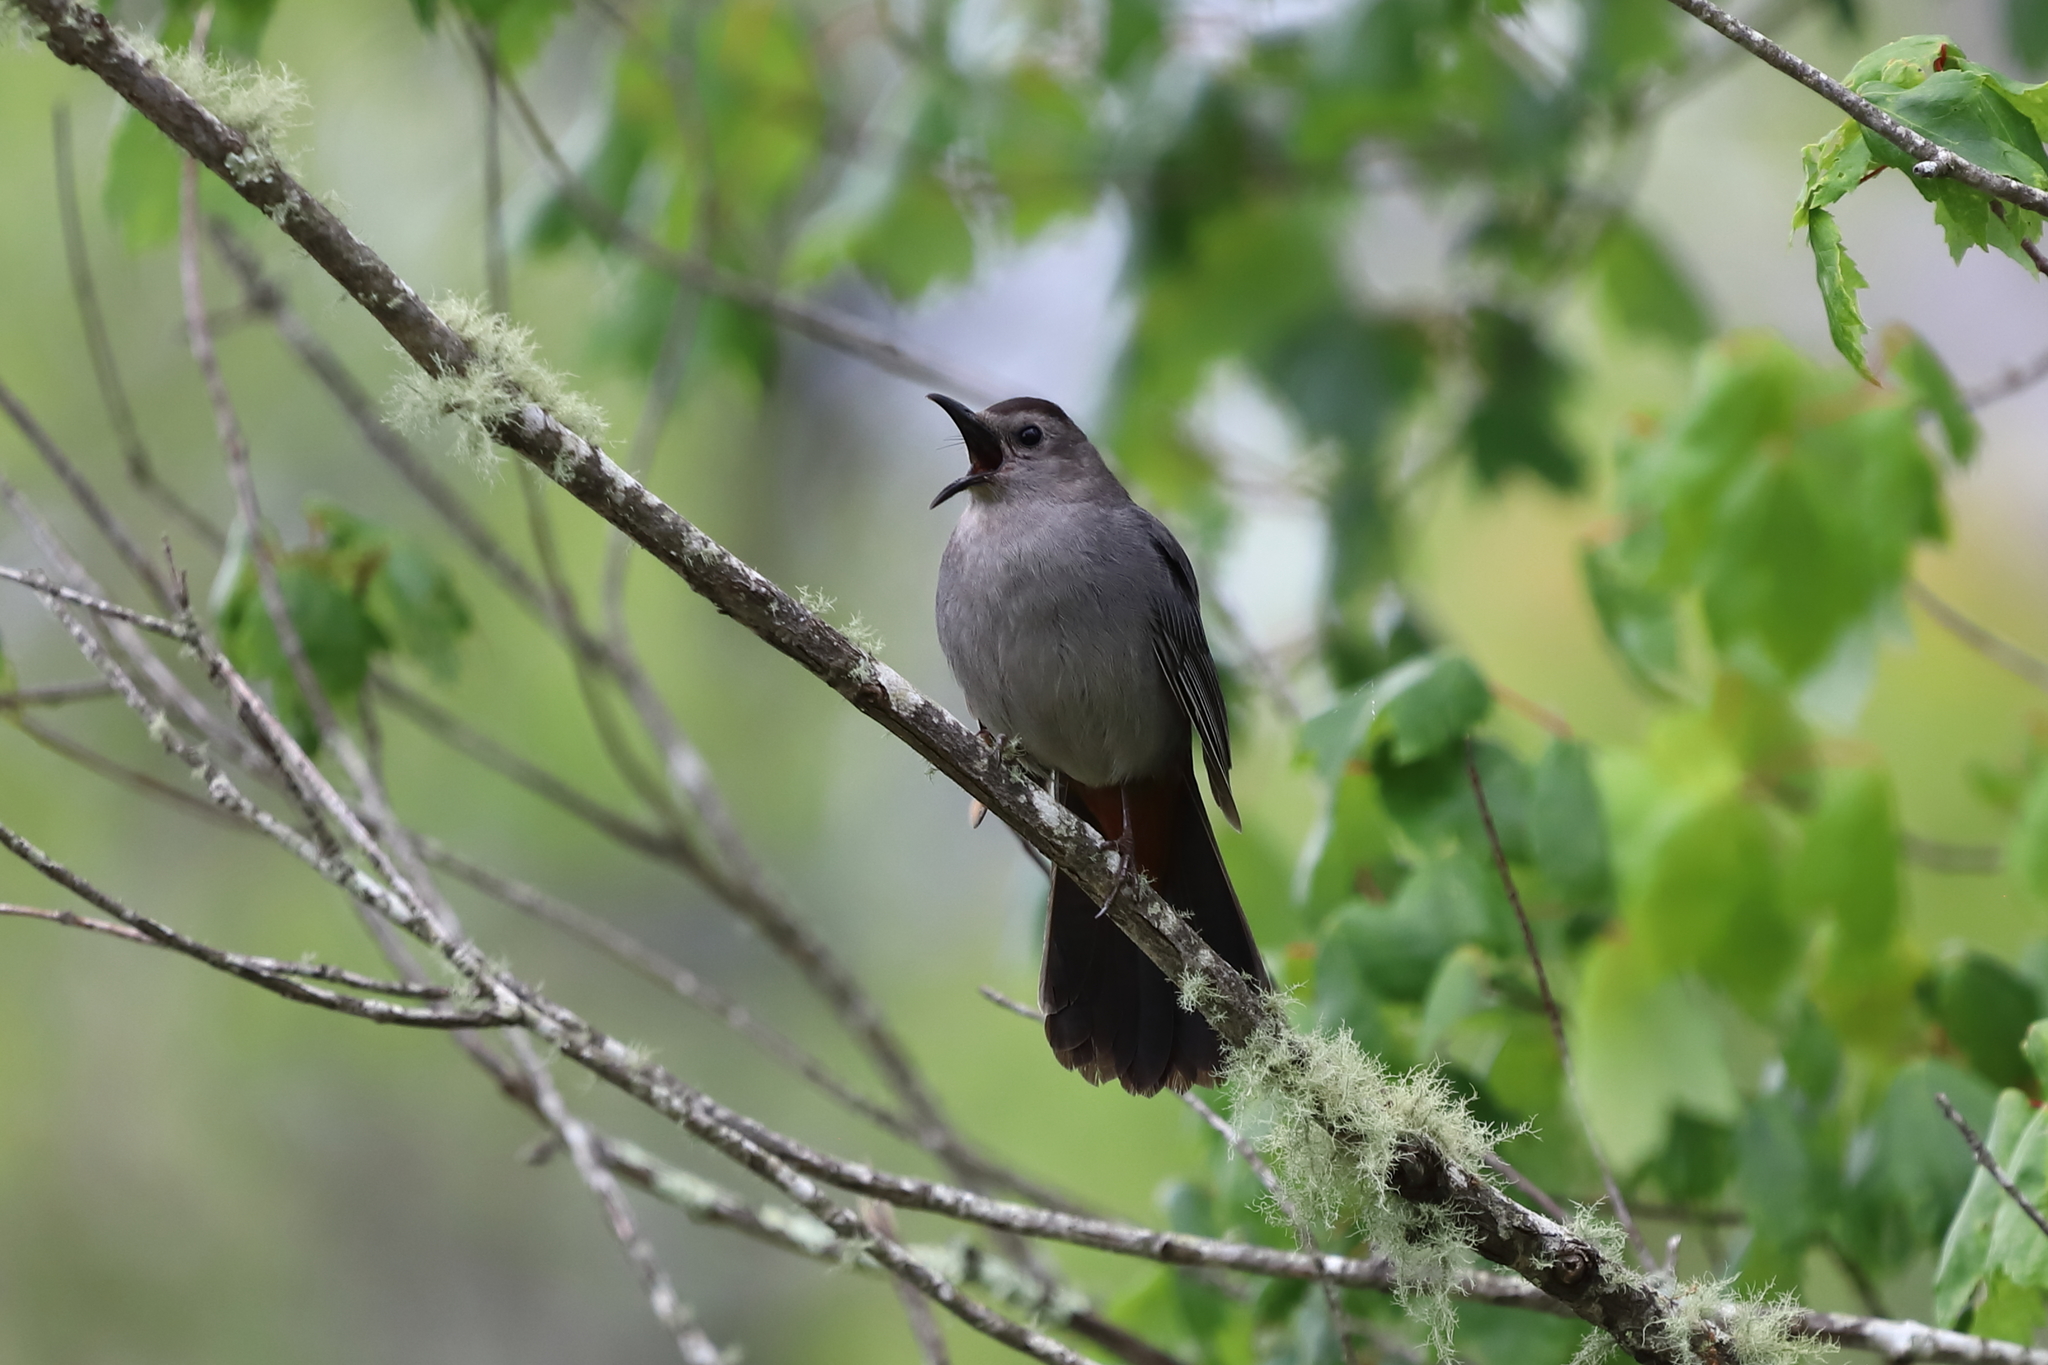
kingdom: Animalia
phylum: Chordata
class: Aves
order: Passeriformes
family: Mimidae
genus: Dumetella
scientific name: Dumetella carolinensis
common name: Gray catbird
